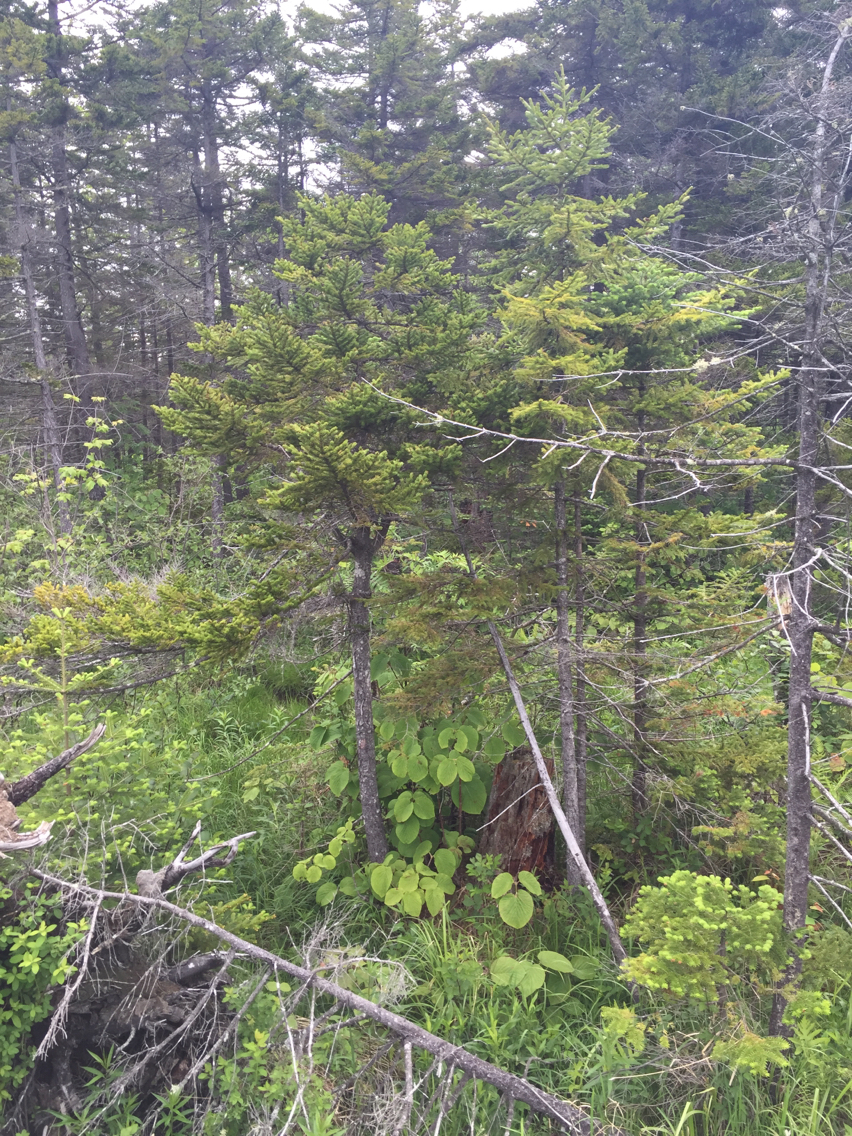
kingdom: Plantae
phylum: Tracheophyta
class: Pinopsida
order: Pinales
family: Pinaceae
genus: Picea
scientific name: Picea rubens
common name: Red spruce
